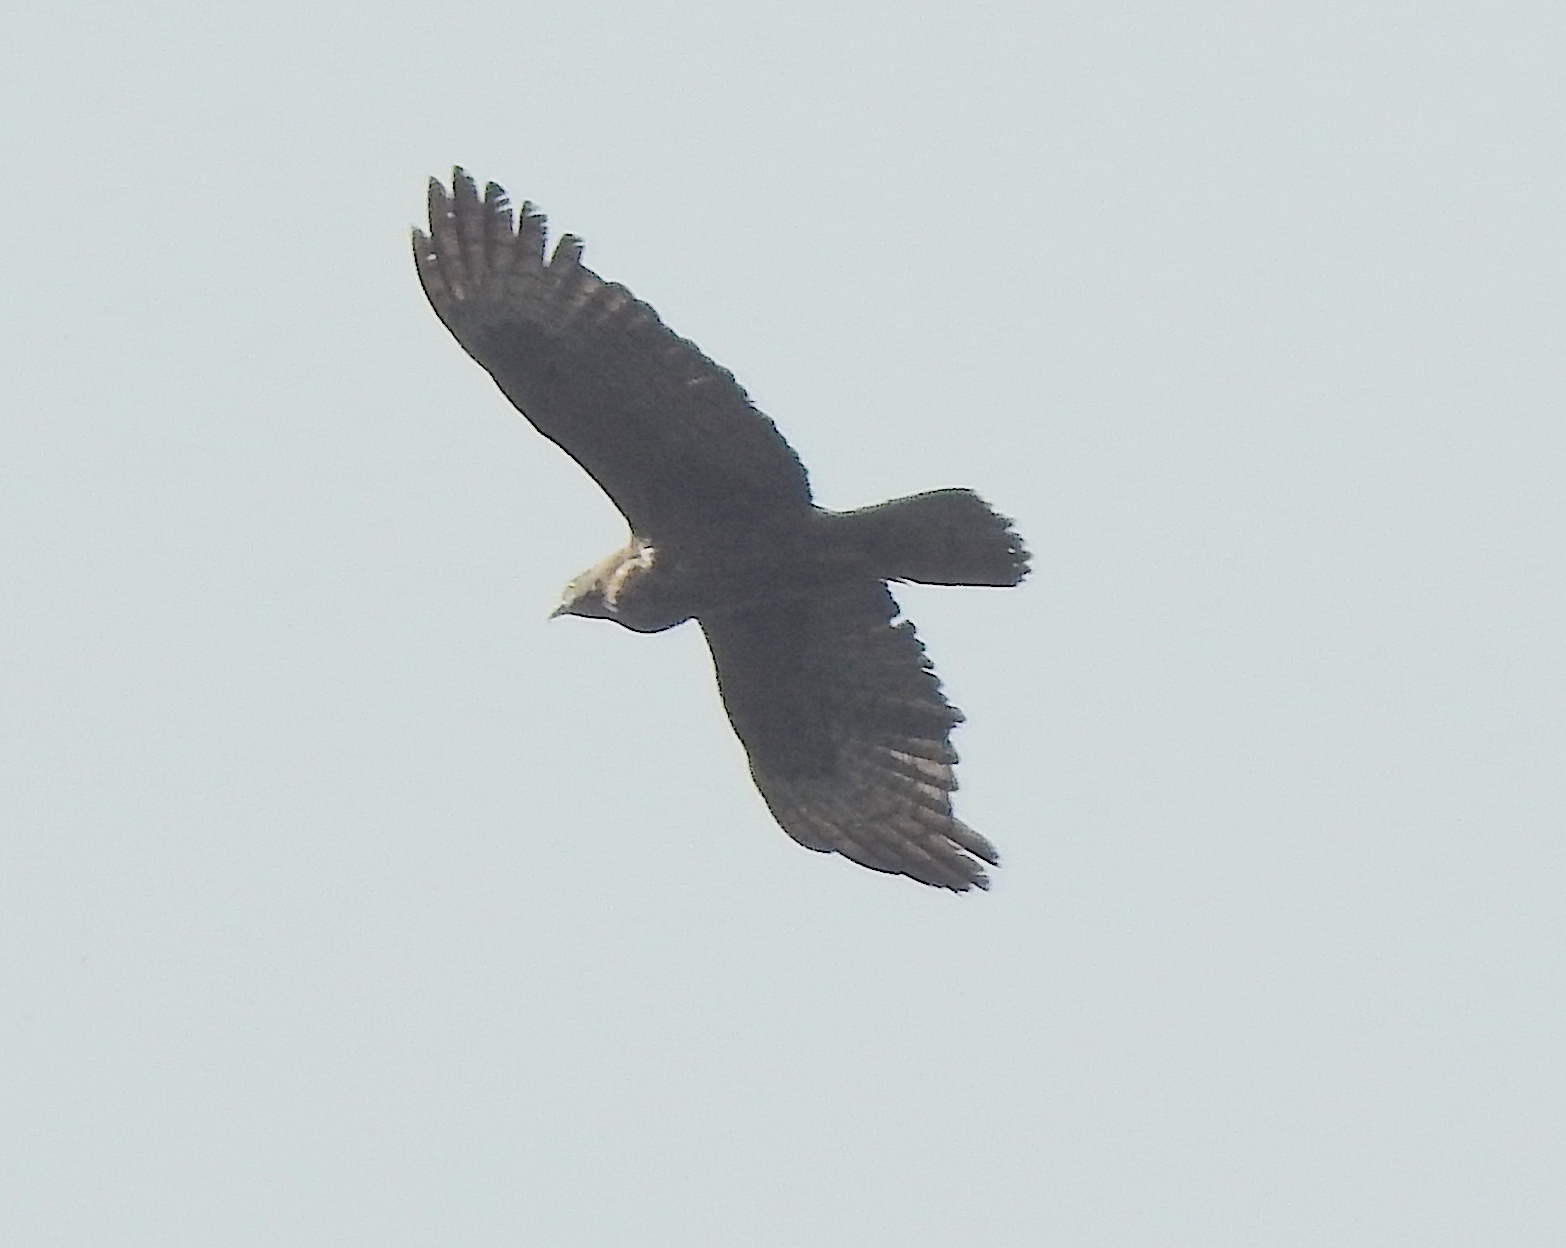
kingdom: Animalia
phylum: Chordata
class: Aves
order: Accipitriformes
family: Accipitridae
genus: Pernis
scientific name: Pernis ptilorhynchus
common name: Crested honey buzzard
